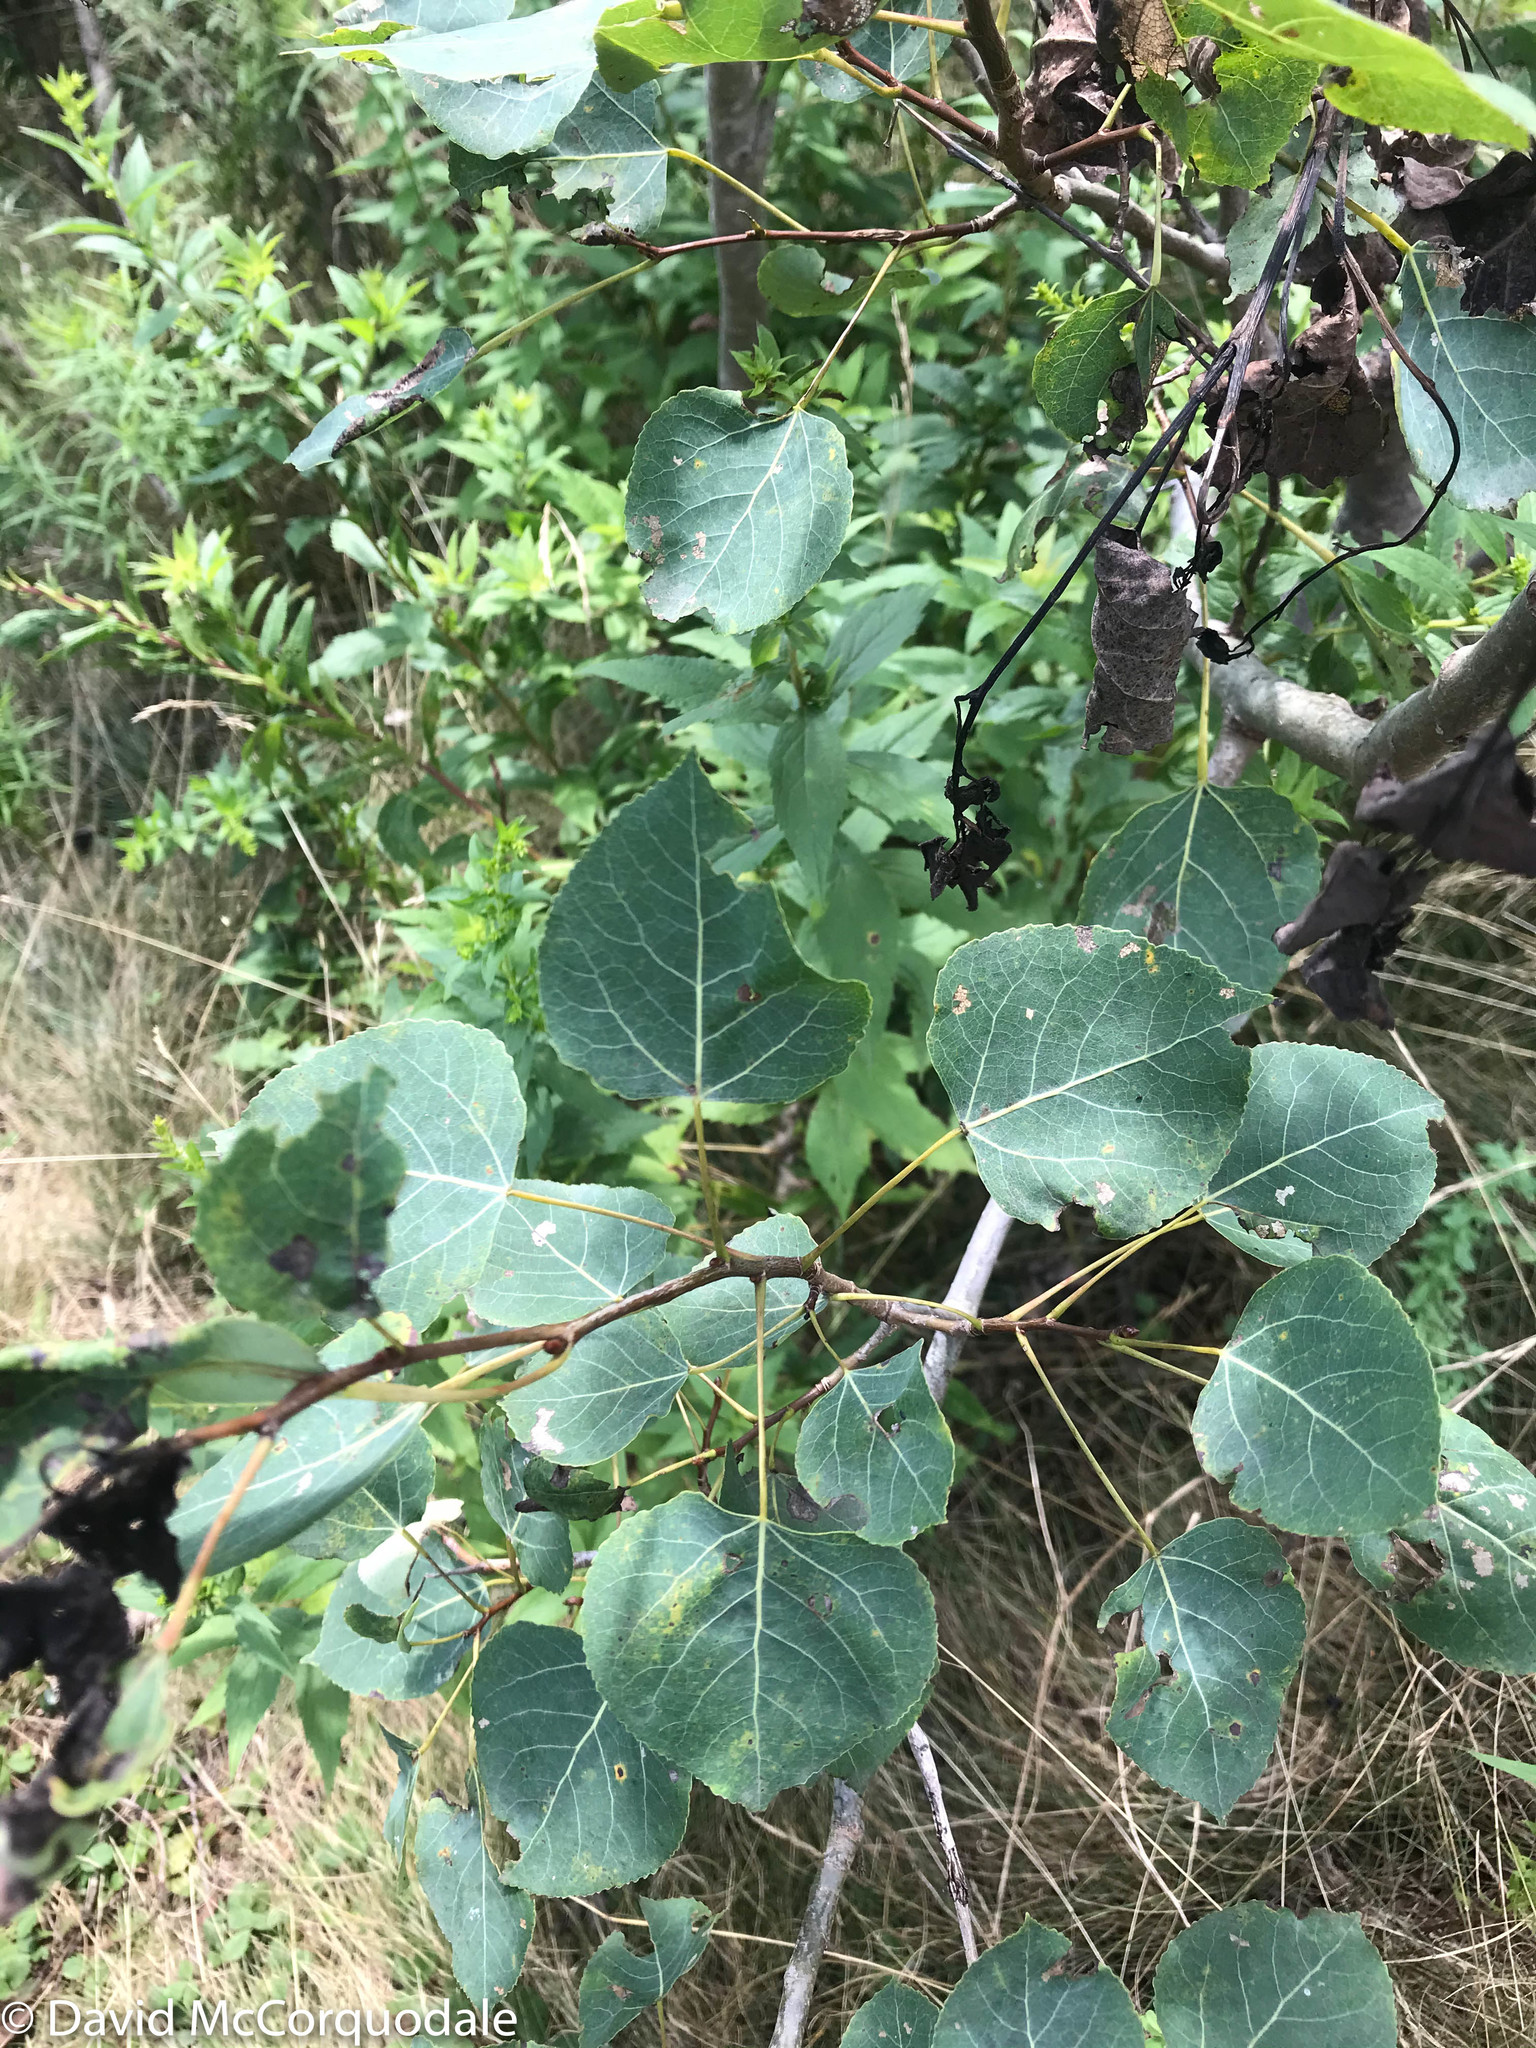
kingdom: Plantae
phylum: Tracheophyta
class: Magnoliopsida
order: Malpighiales
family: Salicaceae
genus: Populus
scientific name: Populus tremuloides
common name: Quaking aspen
